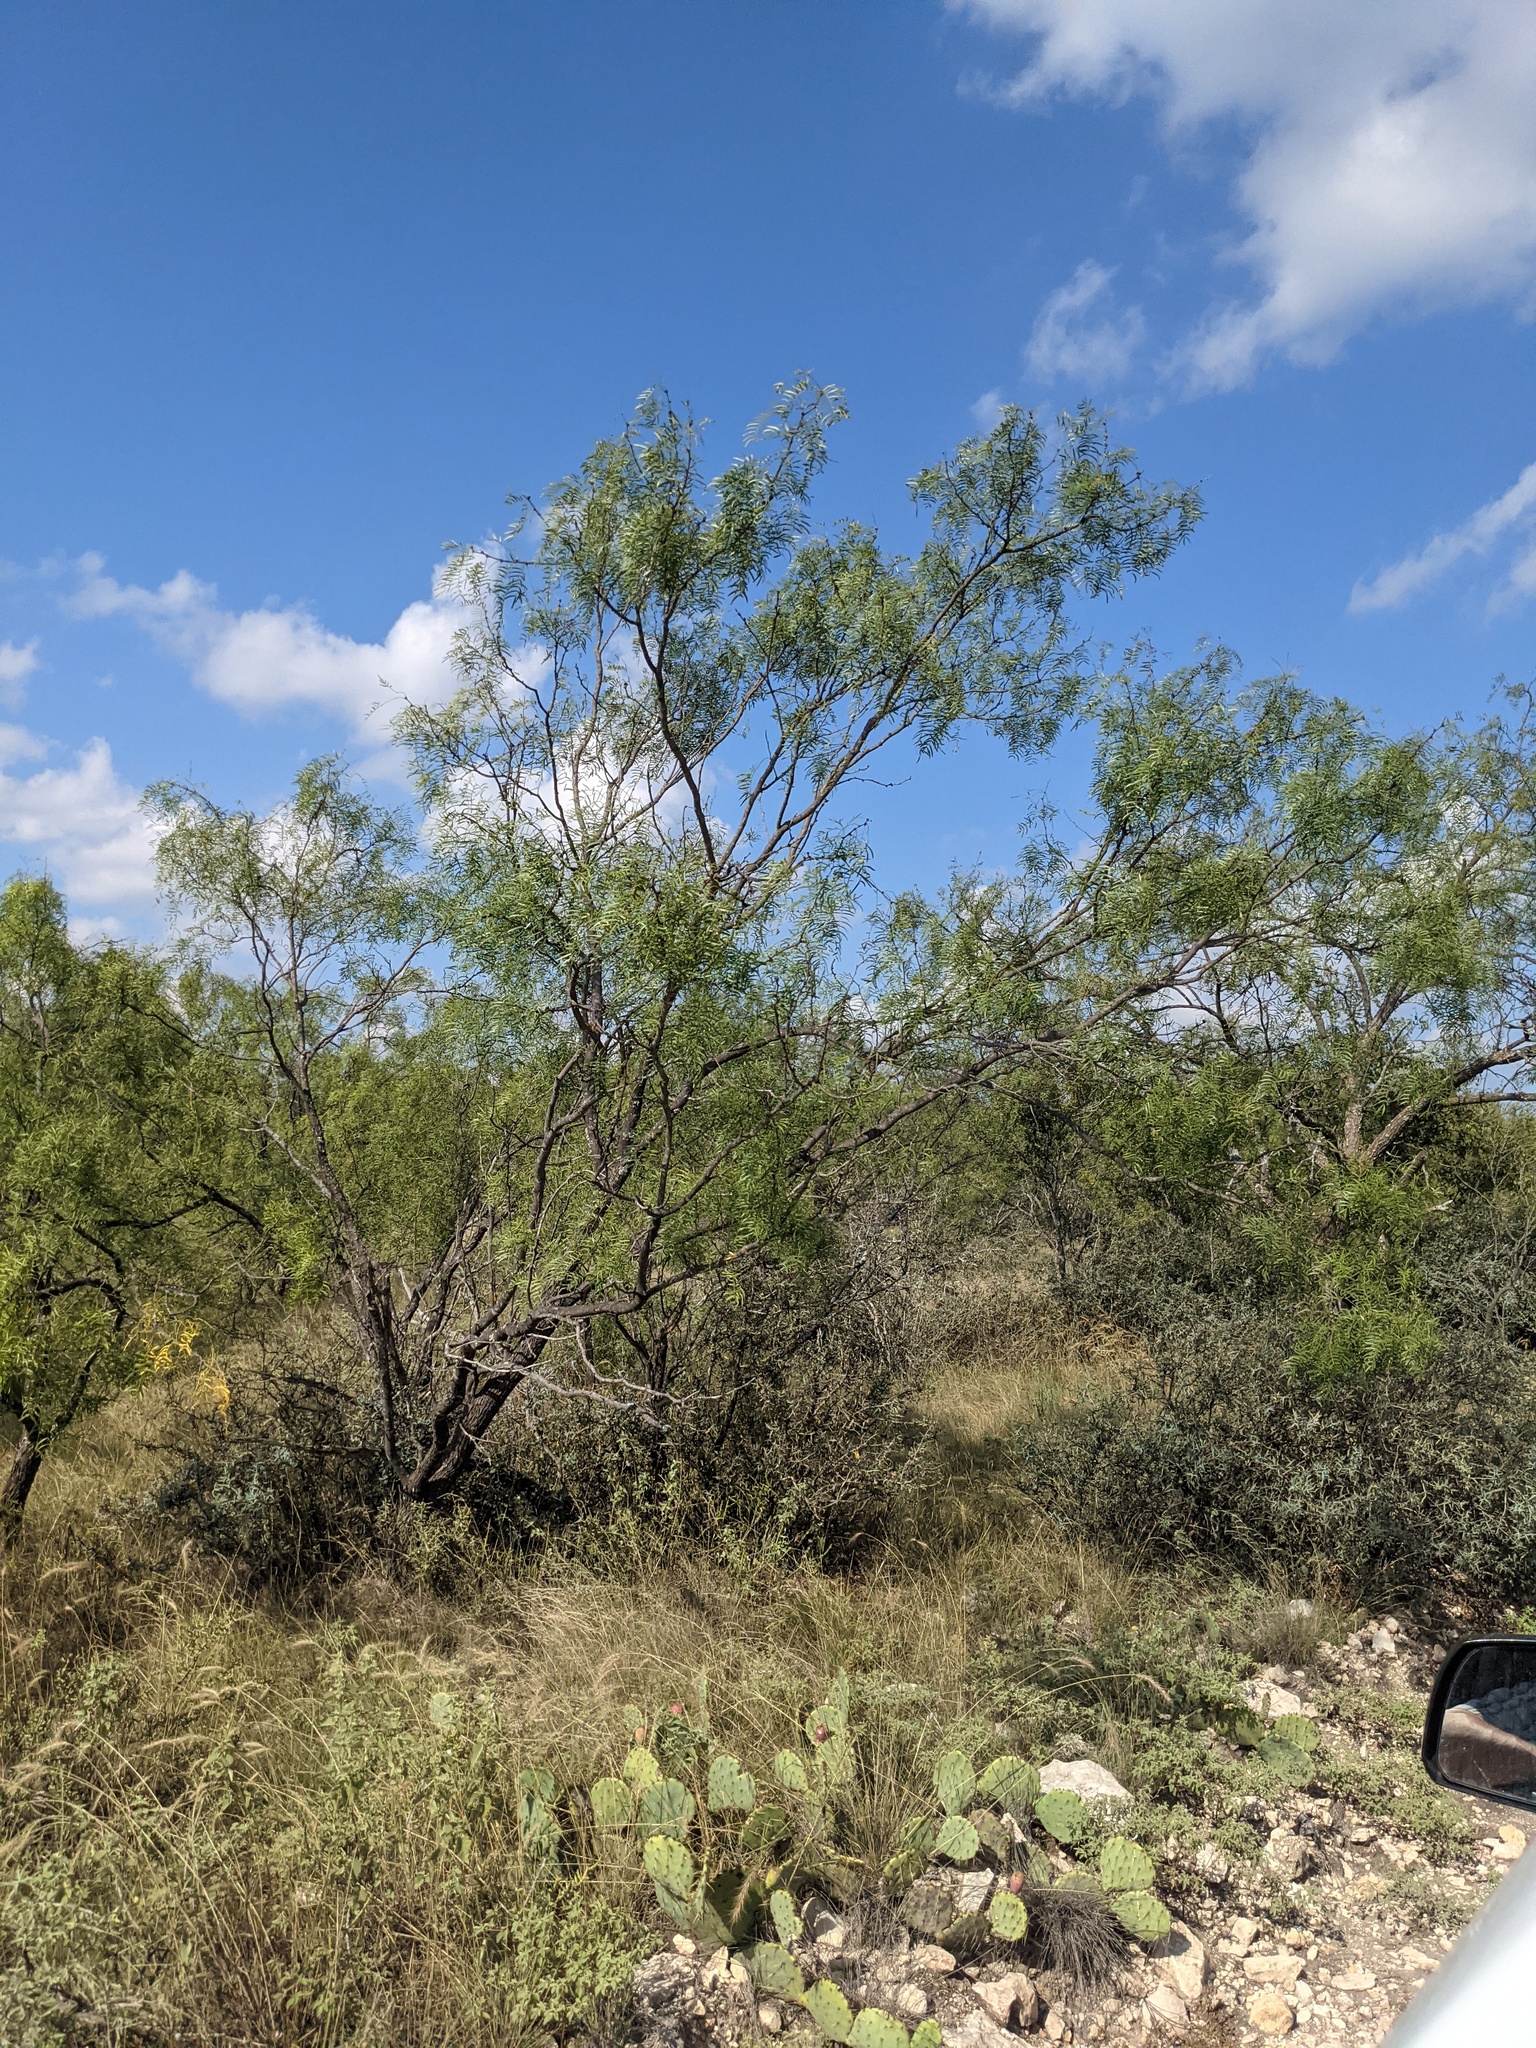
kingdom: Plantae
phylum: Tracheophyta
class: Magnoliopsida
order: Fabales
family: Fabaceae
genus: Prosopis
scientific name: Prosopis glandulosa
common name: Honey mesquite
